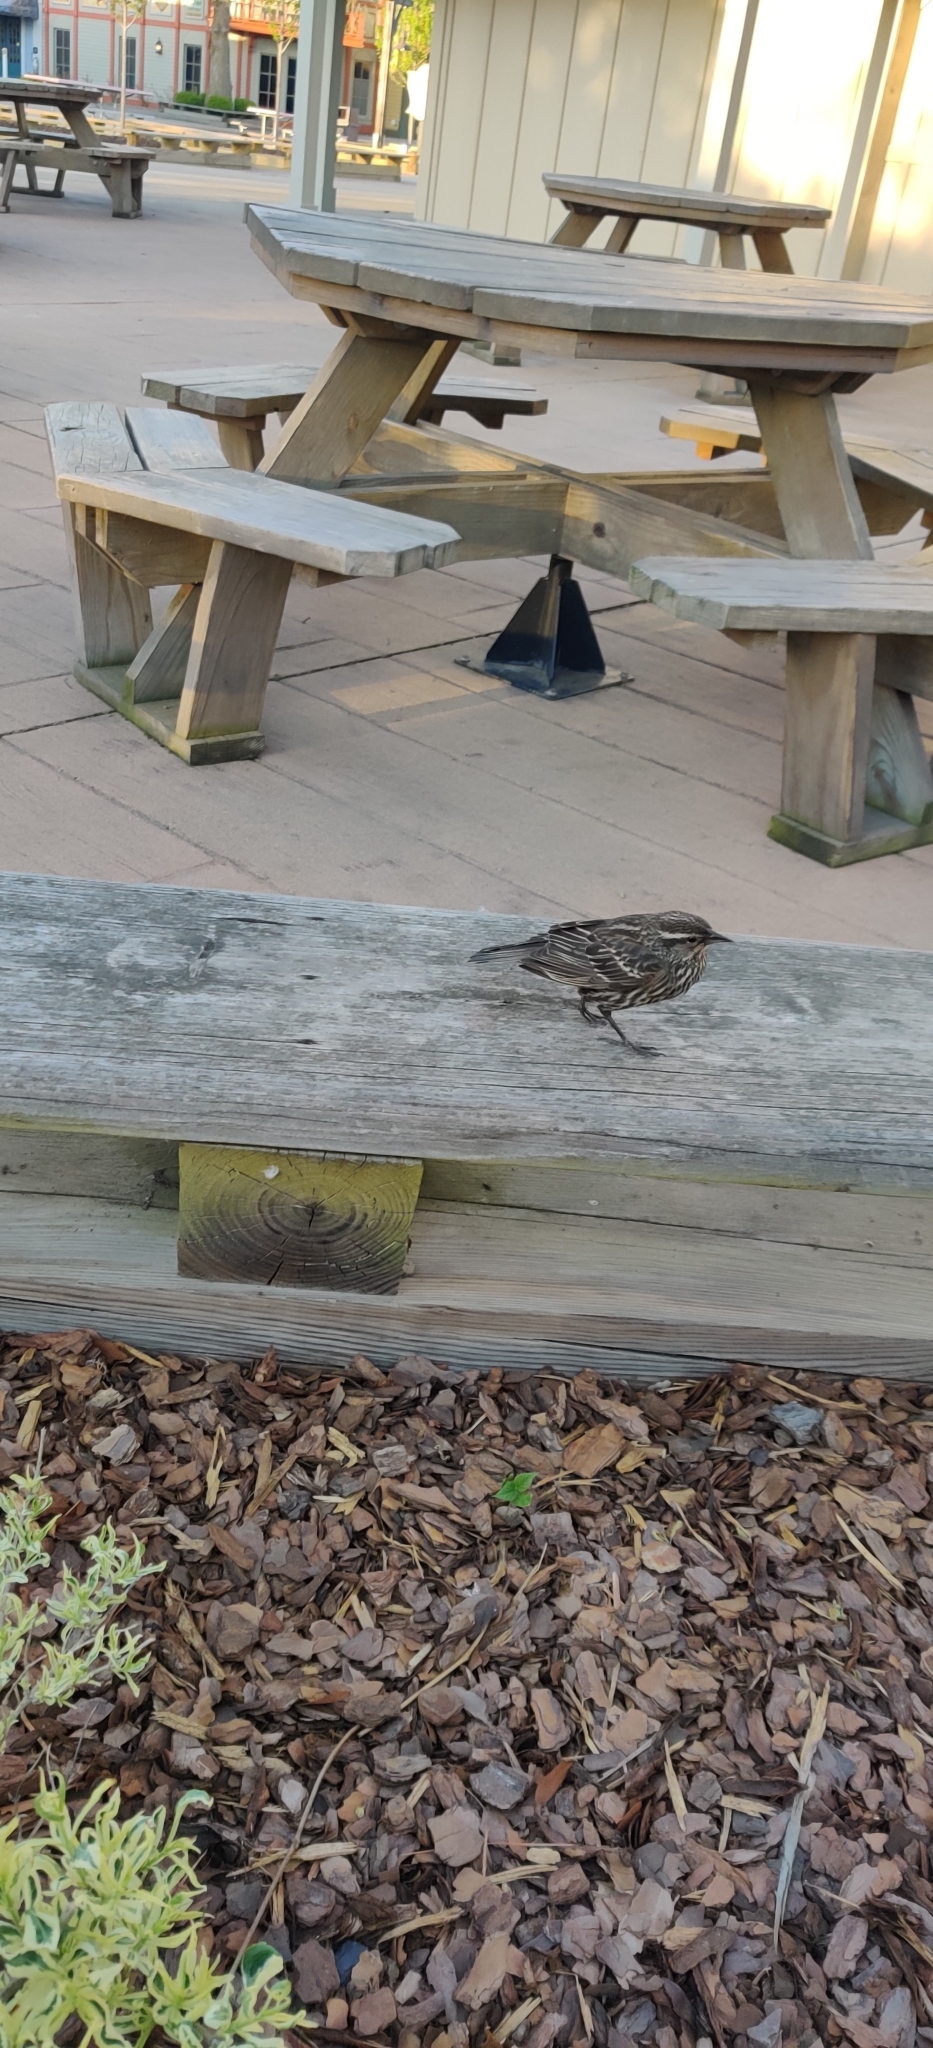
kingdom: Animalia
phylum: Chordata
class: Aves
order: Passeriformes
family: Icteridae
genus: Agelaius
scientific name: Agelaius phoeniceus
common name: Red-winged blackbird
